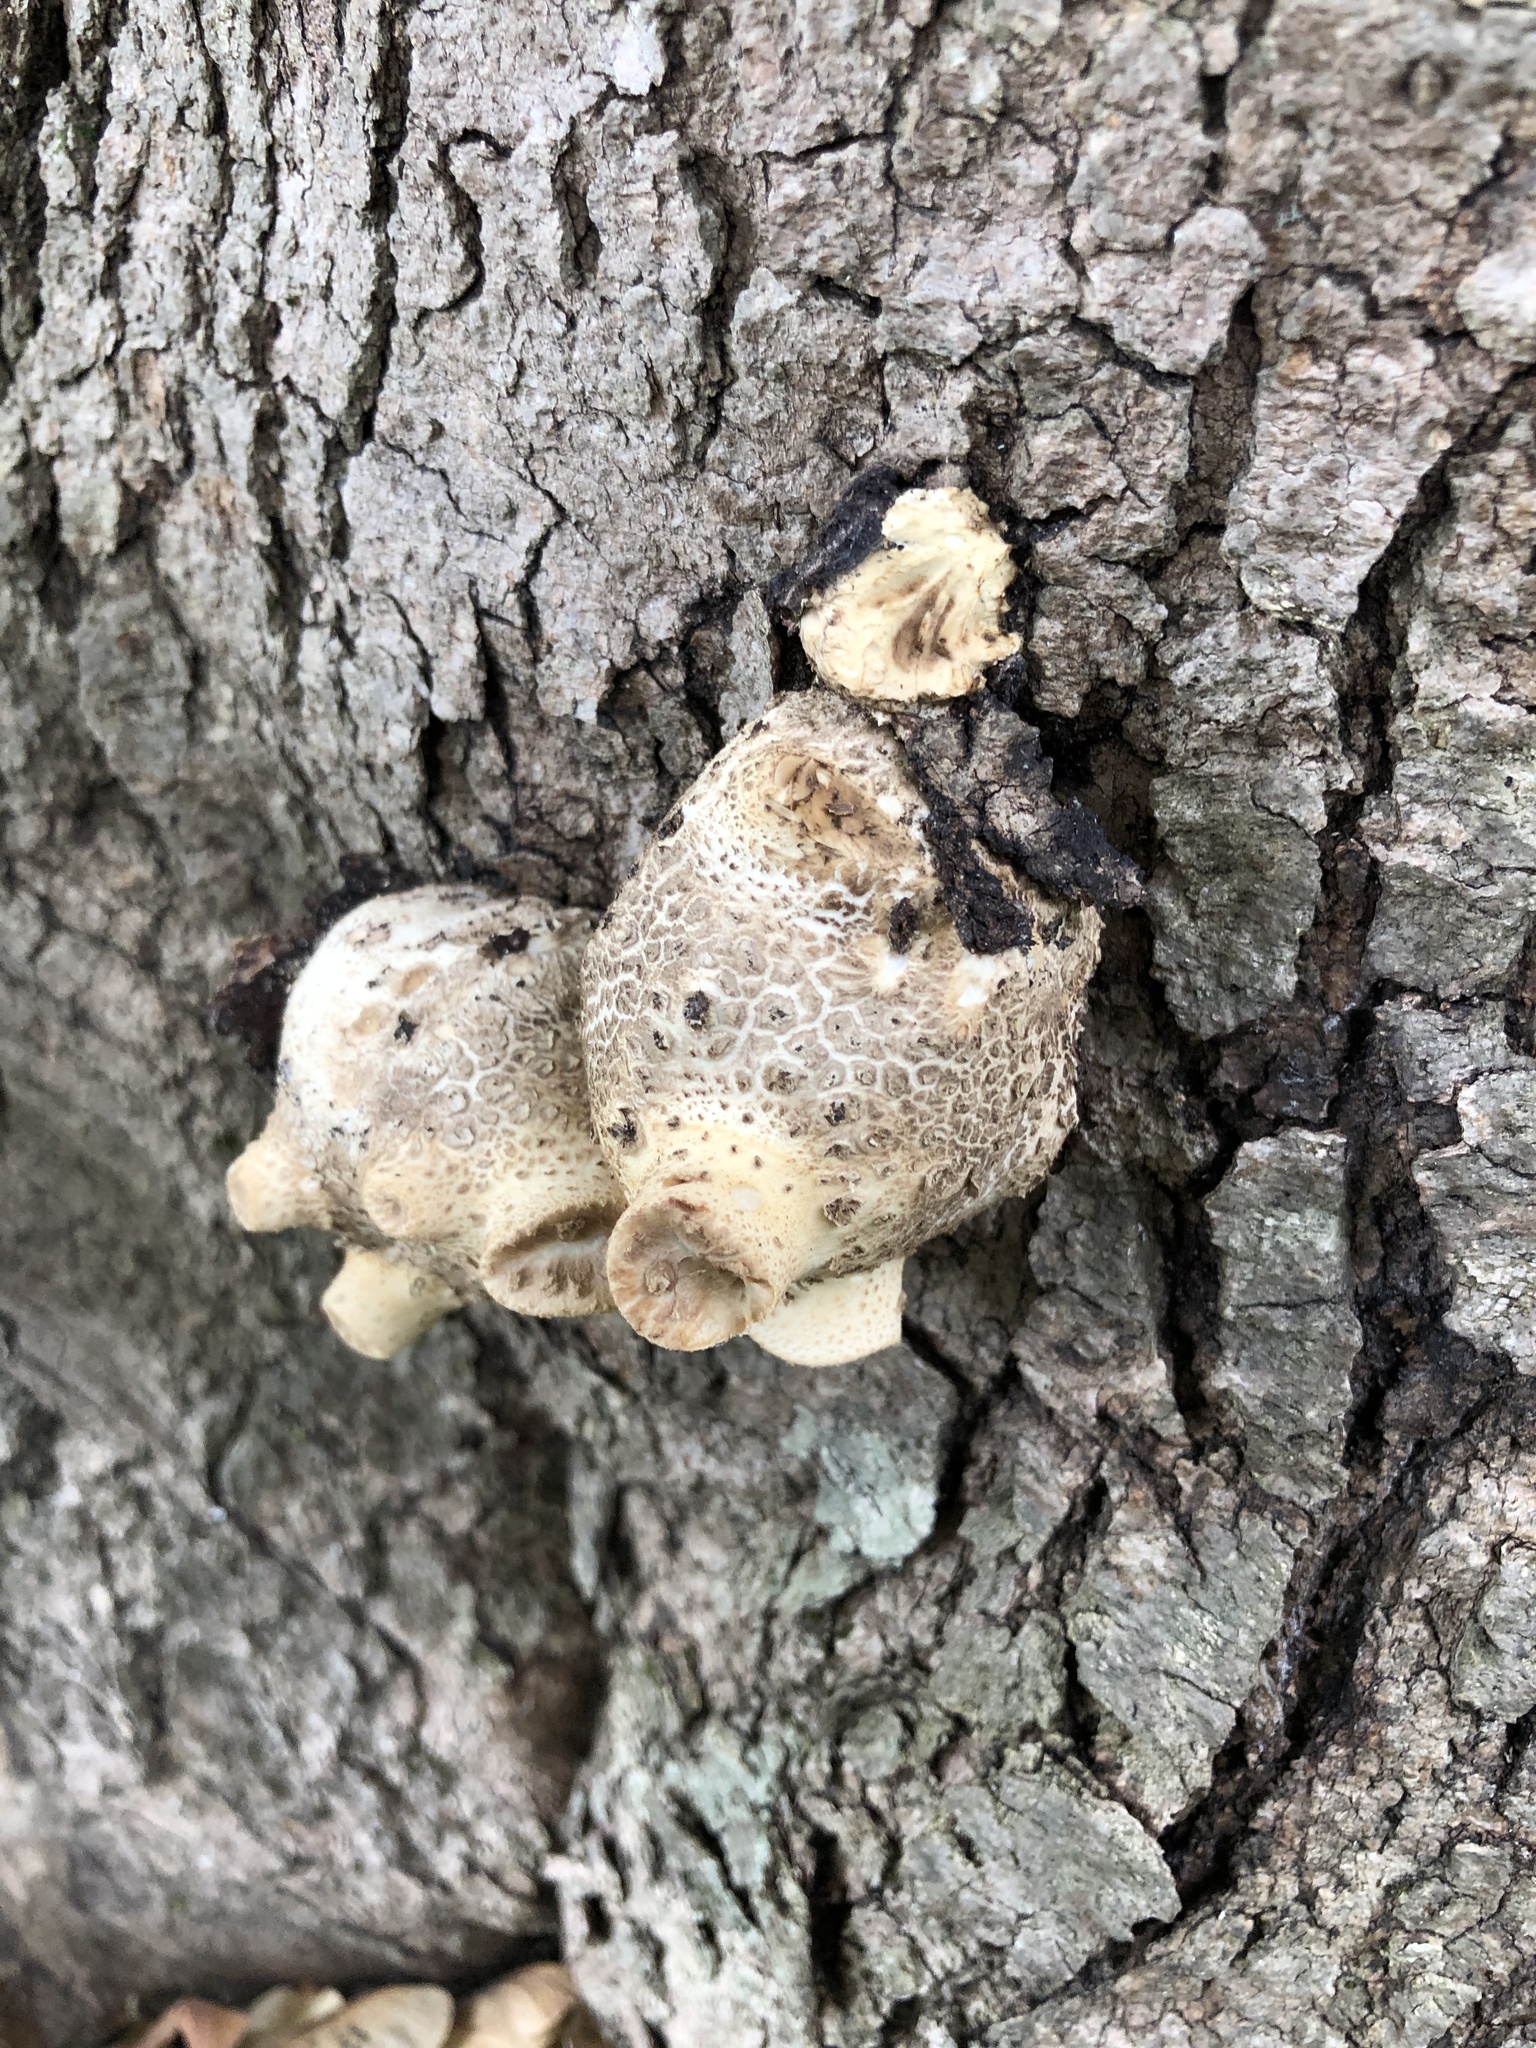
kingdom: Fungi
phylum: Basidiomycota
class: Agaricomycetes
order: Polyporales
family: Polyporaceae
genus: Cerioporus
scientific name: Cerioporus squamosus
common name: Dryad's saddle
